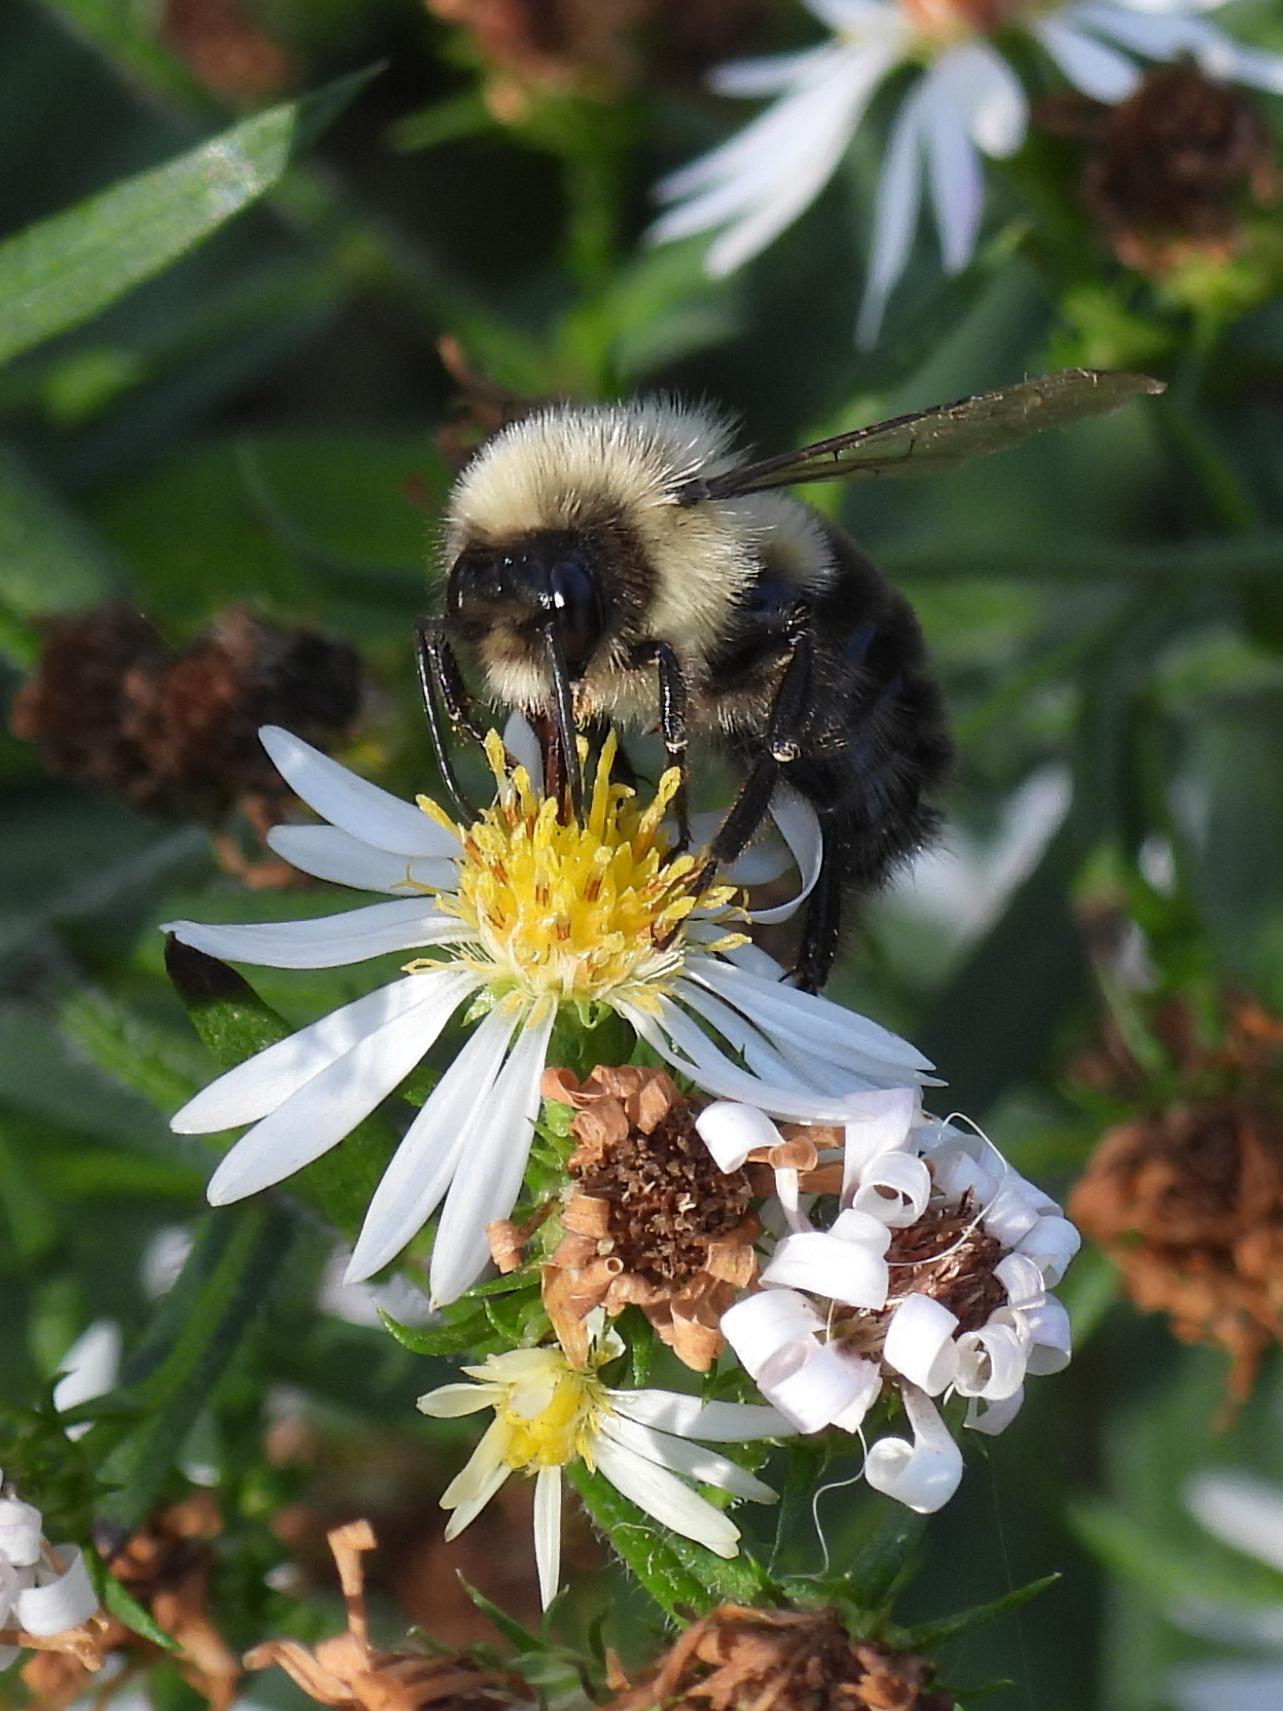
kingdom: Animalia
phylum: Arthropoda
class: Insecta
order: Hymenoptera
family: Apidae
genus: Bombus
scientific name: Bombus impatiens
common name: Common eastern bumble bee
